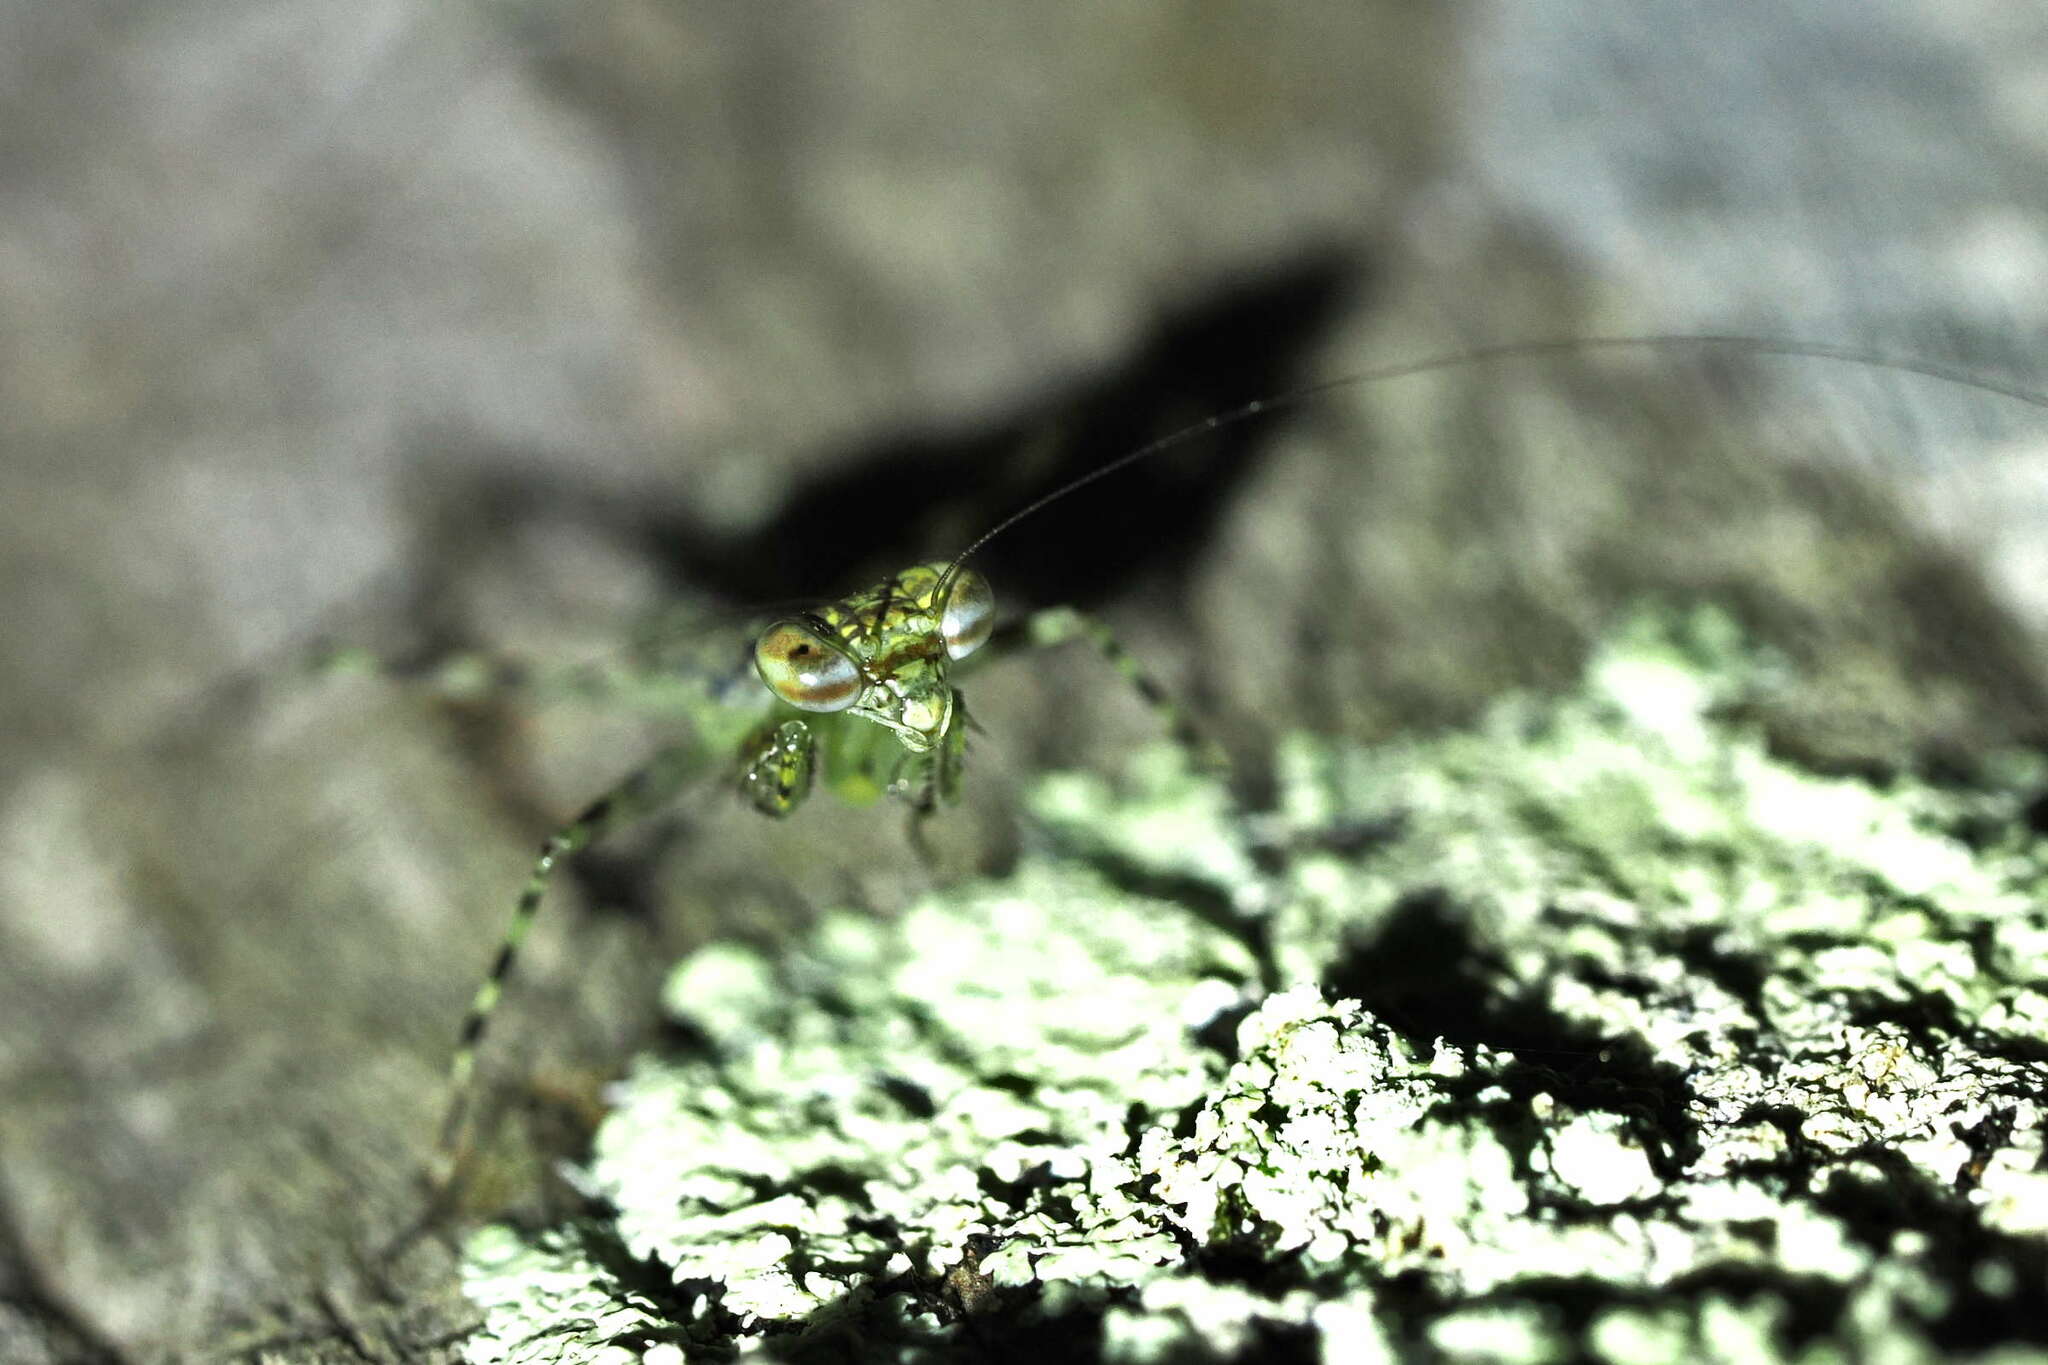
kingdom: Animalia
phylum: Arthropoda
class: Insecta
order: Mantodea
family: Liturgusidae
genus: Liturgusa
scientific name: Liturgusa trinidadensis
